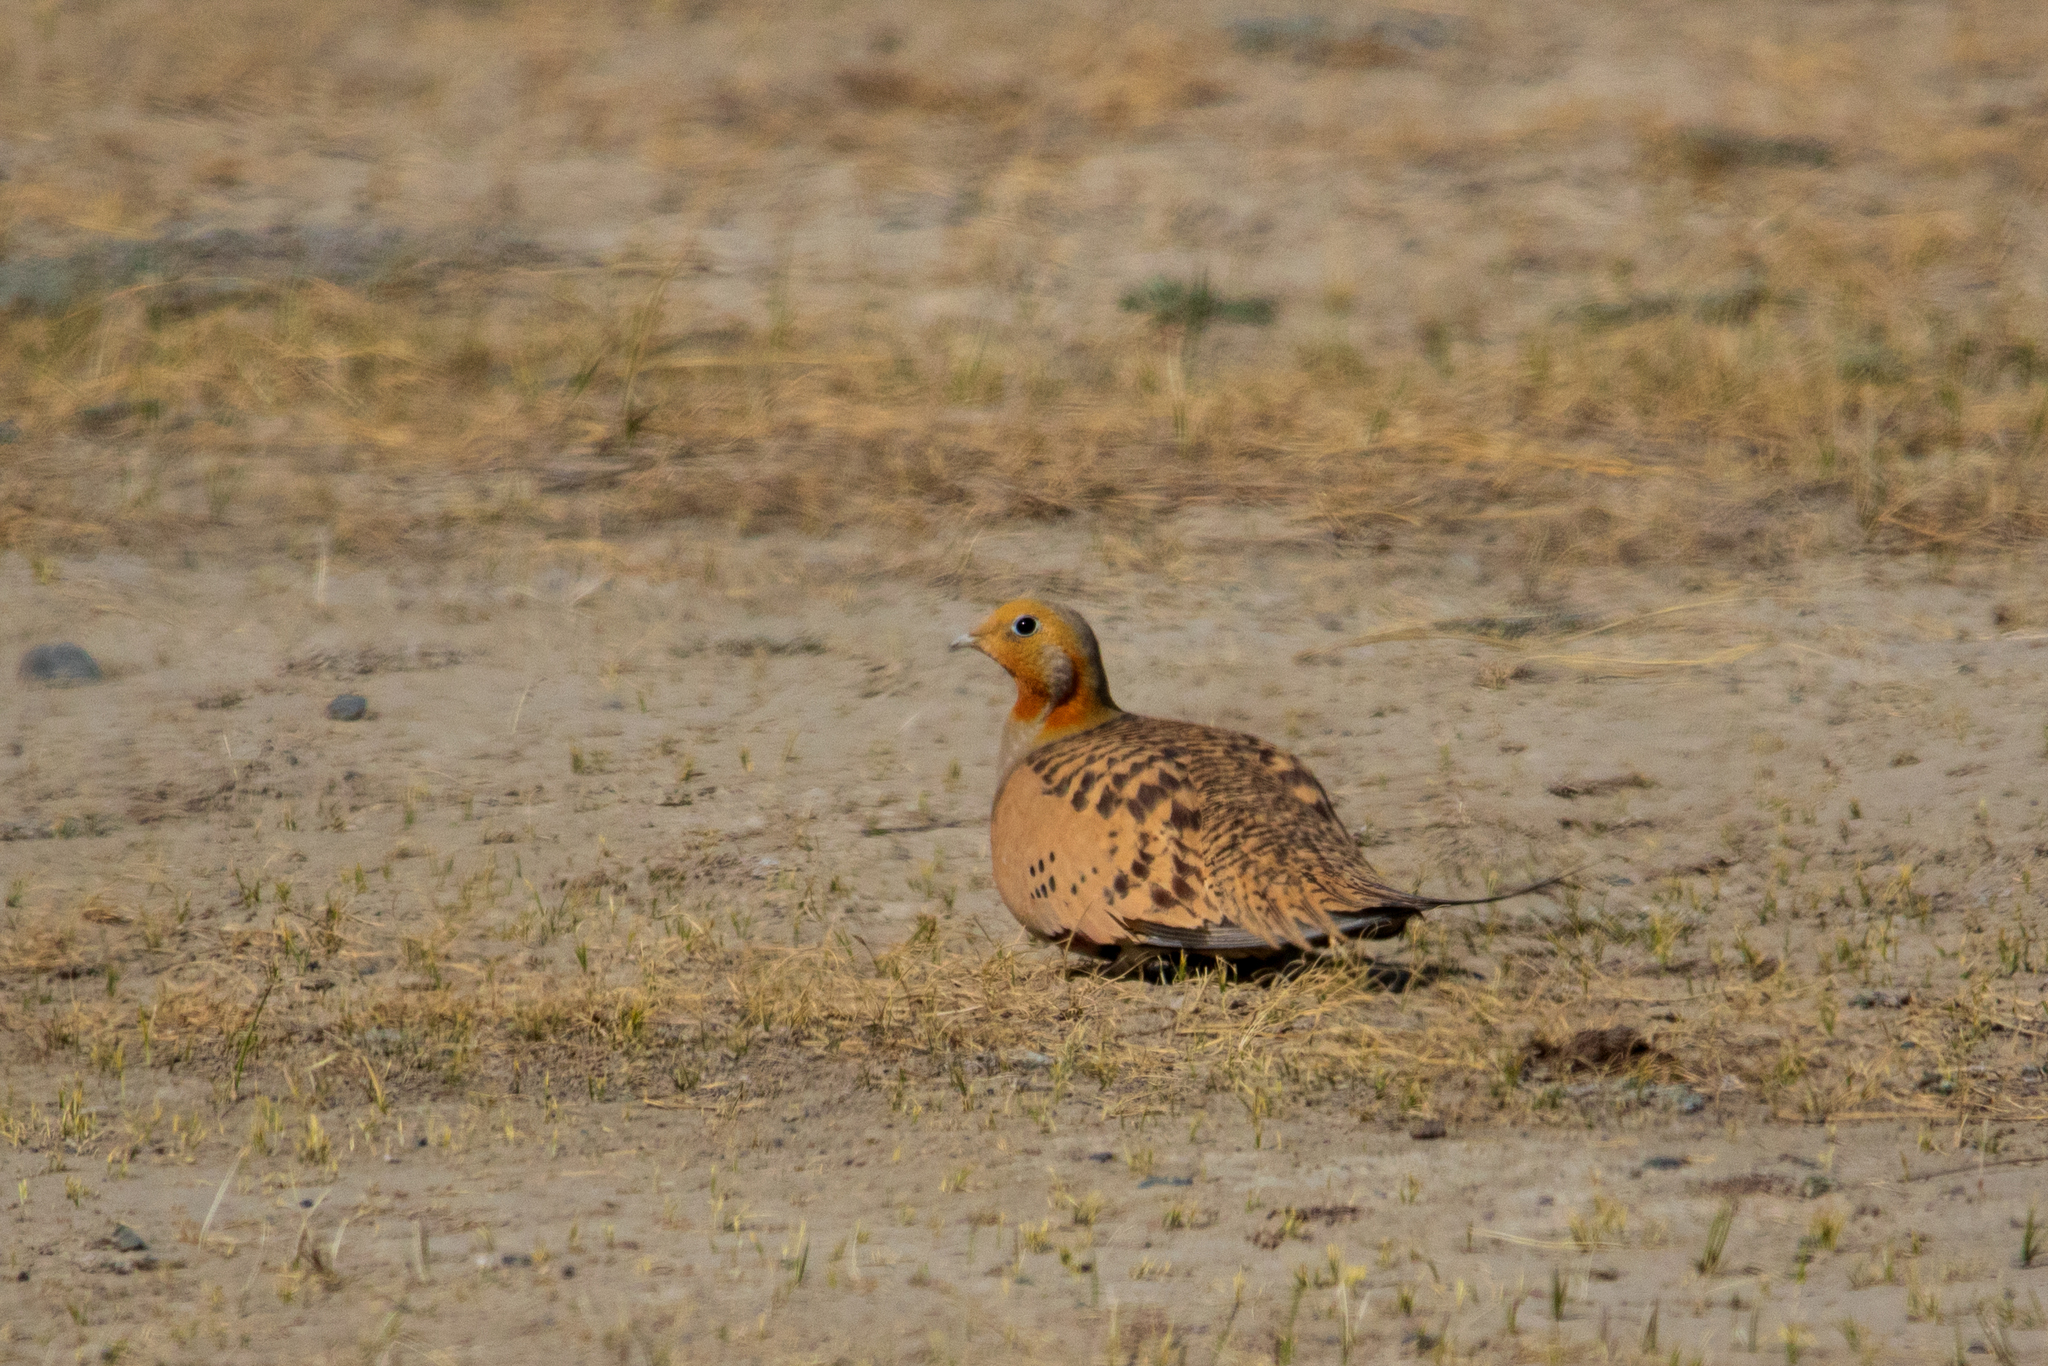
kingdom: Animalia
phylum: Chordata
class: Aves
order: Pteroclidiformes
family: Pteroclididae
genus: Syrrhaptes
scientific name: Syrrhaptes paradoxus
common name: Pallas's sandgrouse
